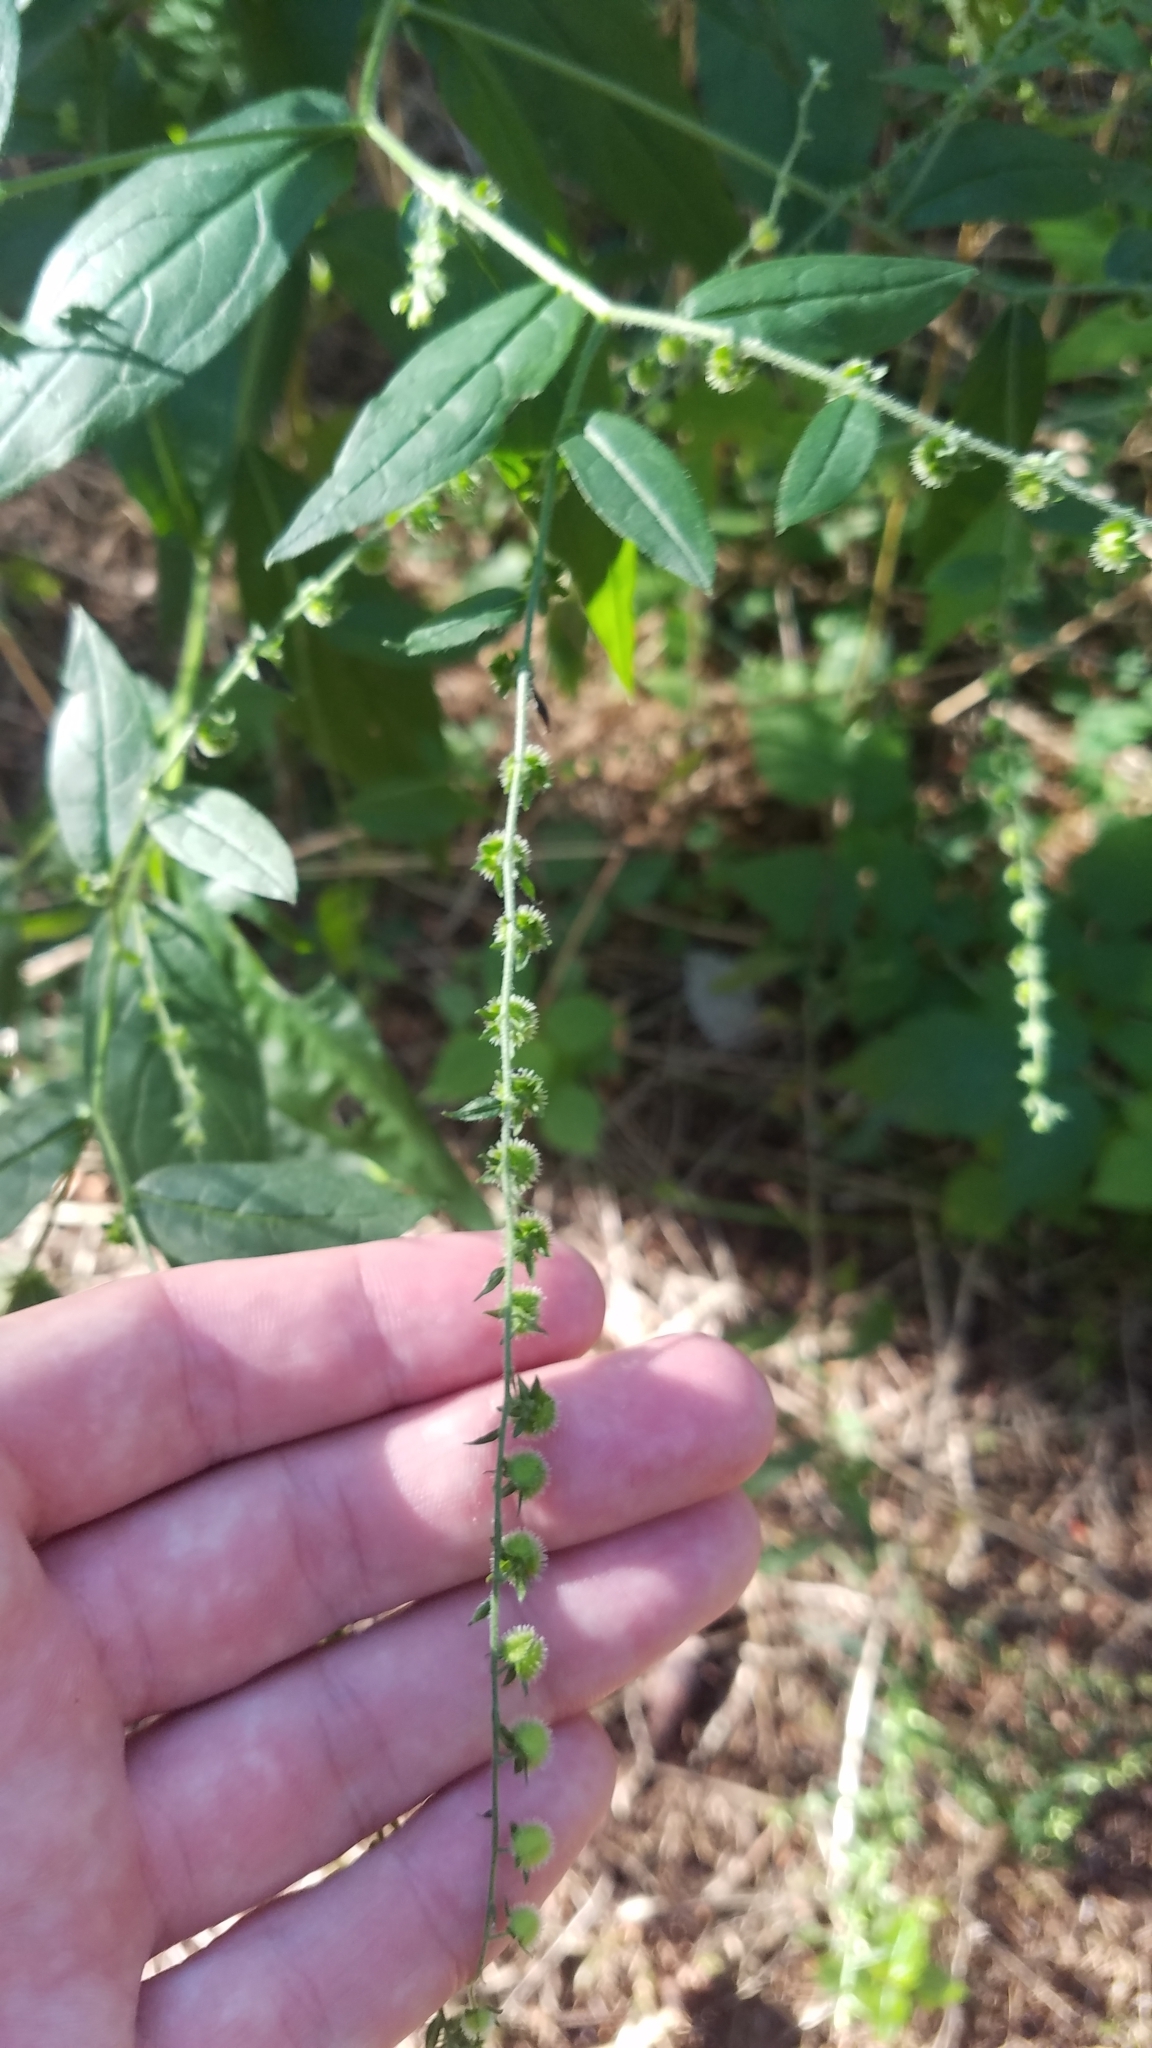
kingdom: Plantae
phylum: Tracheophyta
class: Magnoliopsida
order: Boraginales
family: Boraginaceae
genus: Hackelia
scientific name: Hackelia virginiana
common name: Beggar's-lice
